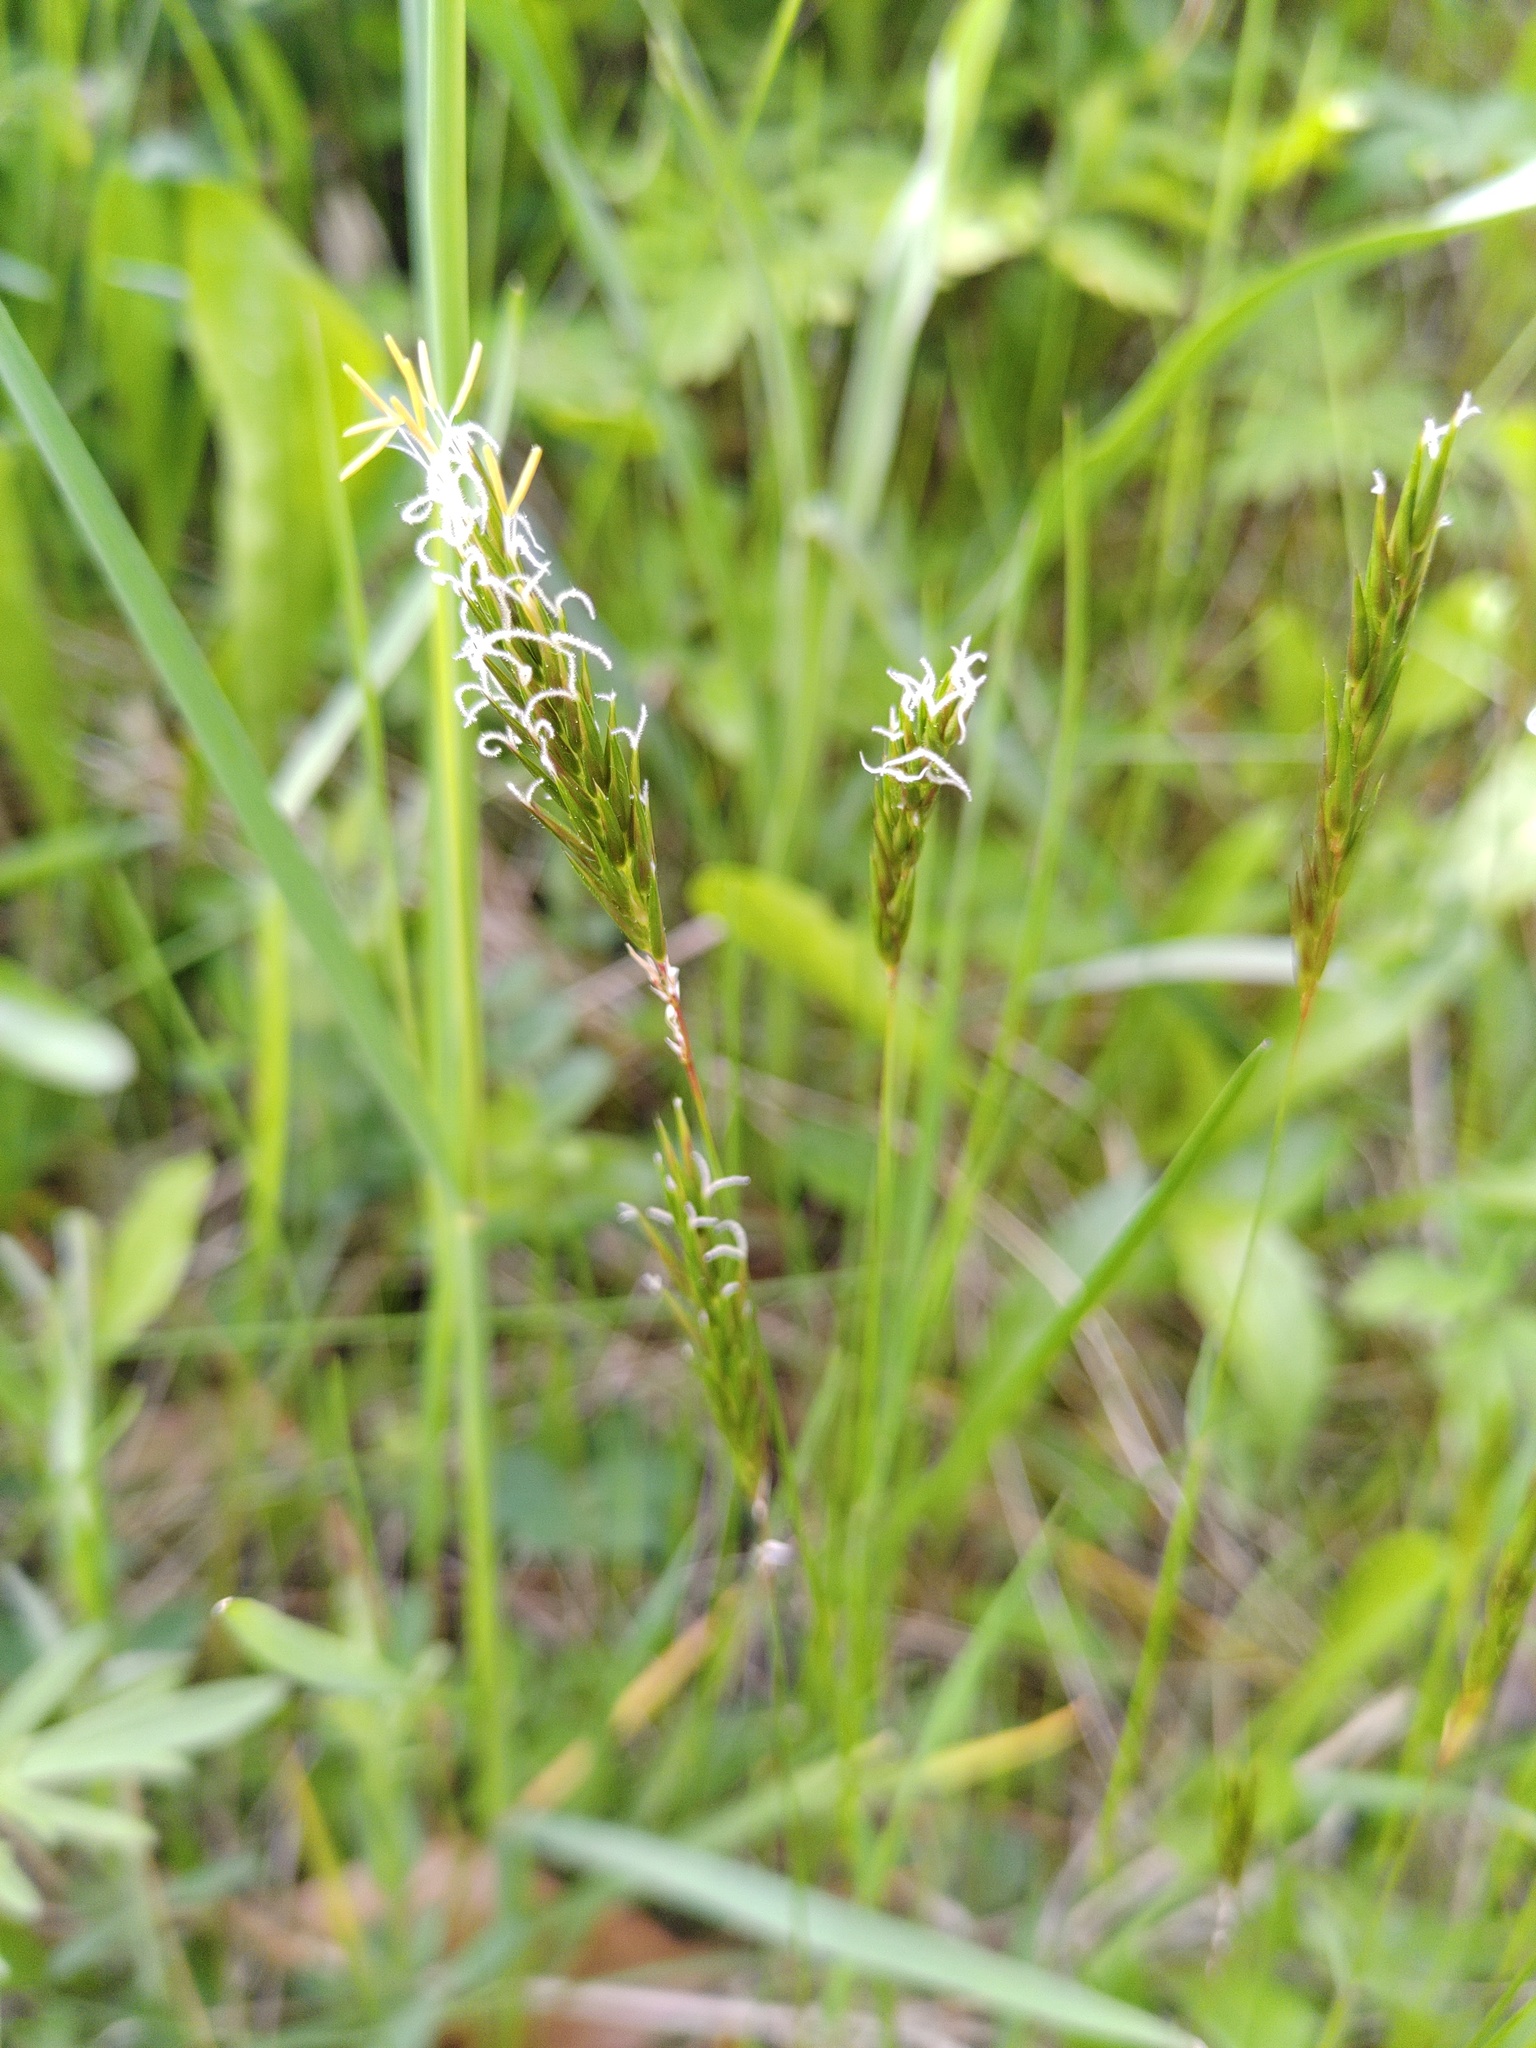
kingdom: Plantae
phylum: Tracheophyta
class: Liliopsida
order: Poales
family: Poaceae
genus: Anthoxanthum
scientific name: Anthoxanthum odoratum
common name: Sweet vernalgrass
